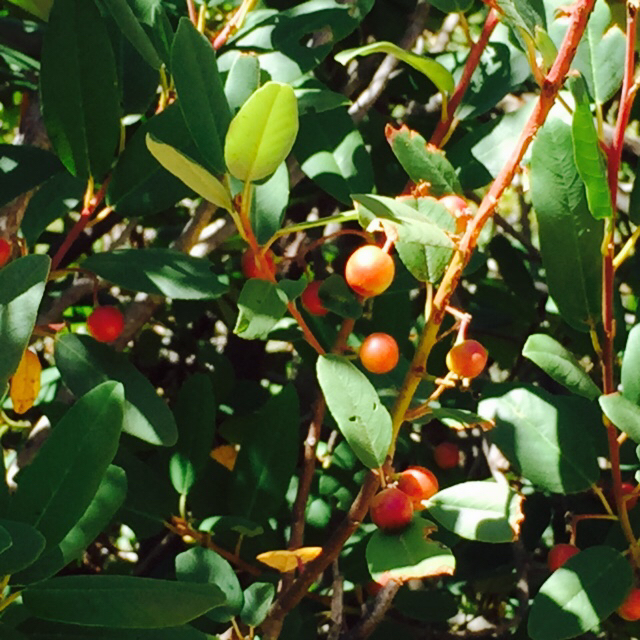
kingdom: Plantae
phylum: Tracheophyta
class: Magnoliopsida
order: Rosales
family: Rhamnaceae
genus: Frangula
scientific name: Frangula californica
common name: California buckthorn
